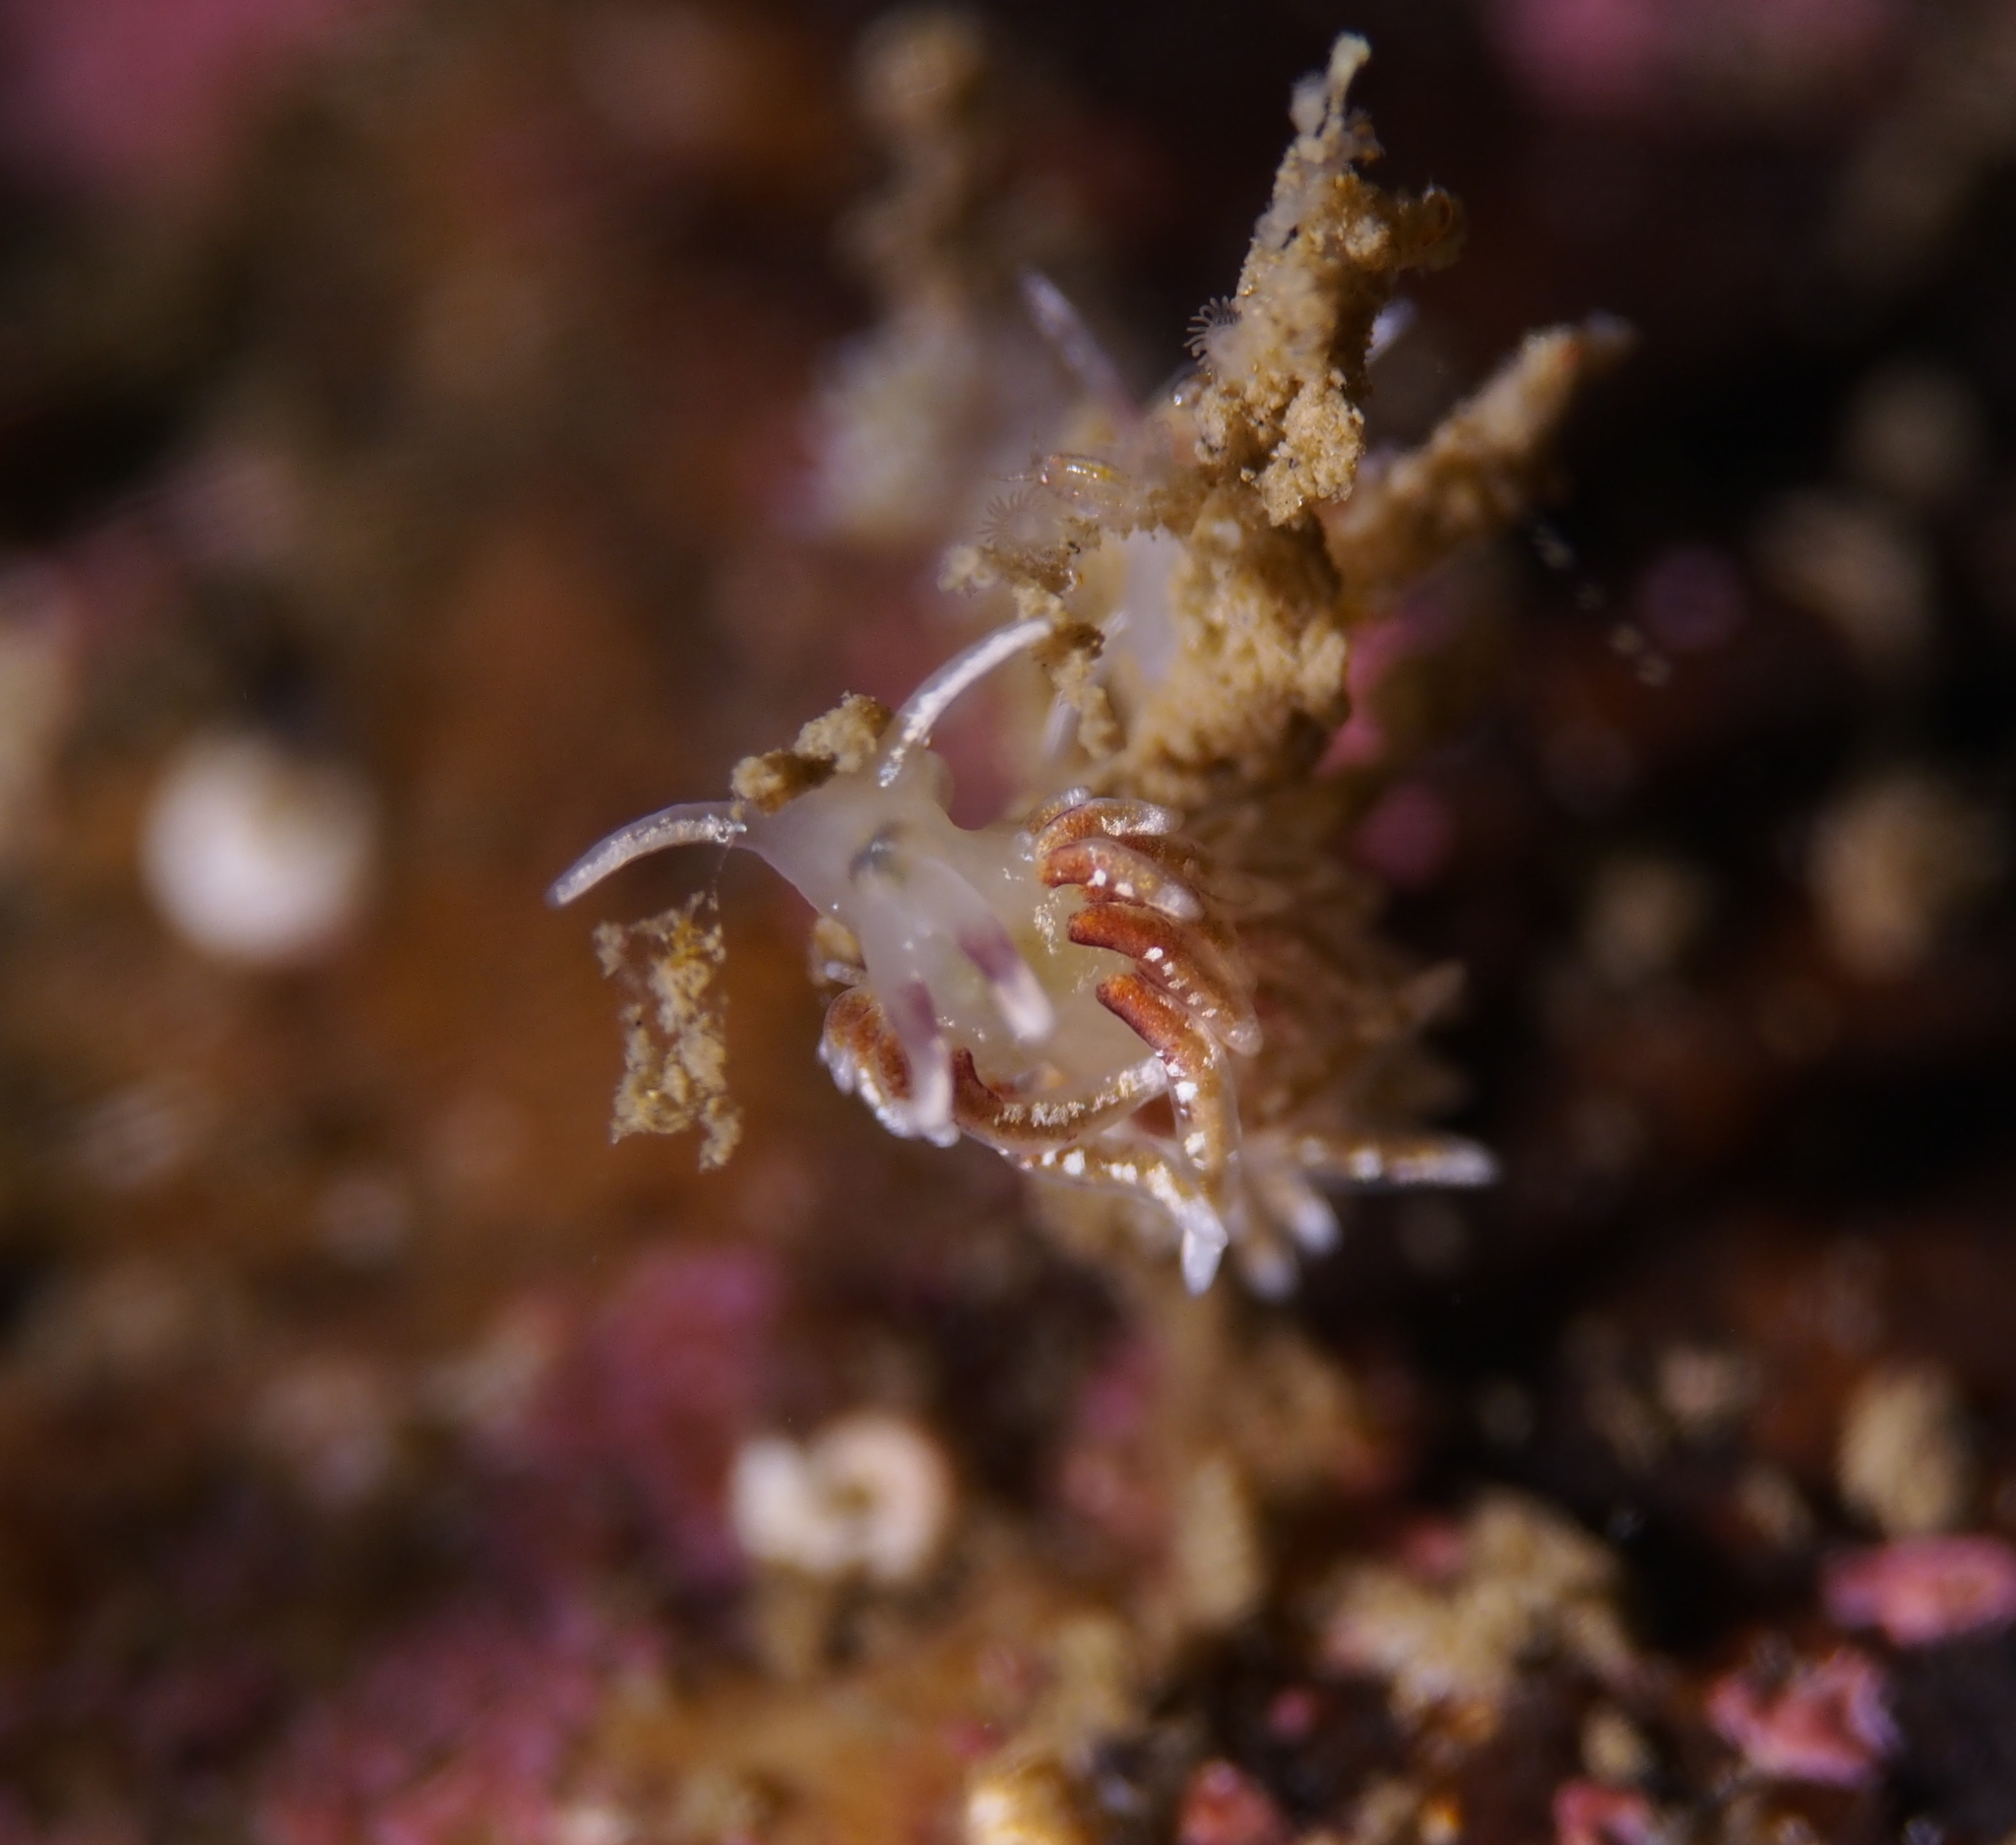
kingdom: Animalia
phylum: Mollusca
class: Gastropoda
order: Nudibranchia
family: Trinchesiidae
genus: Rubramoena
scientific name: Rubramoena rubescens
